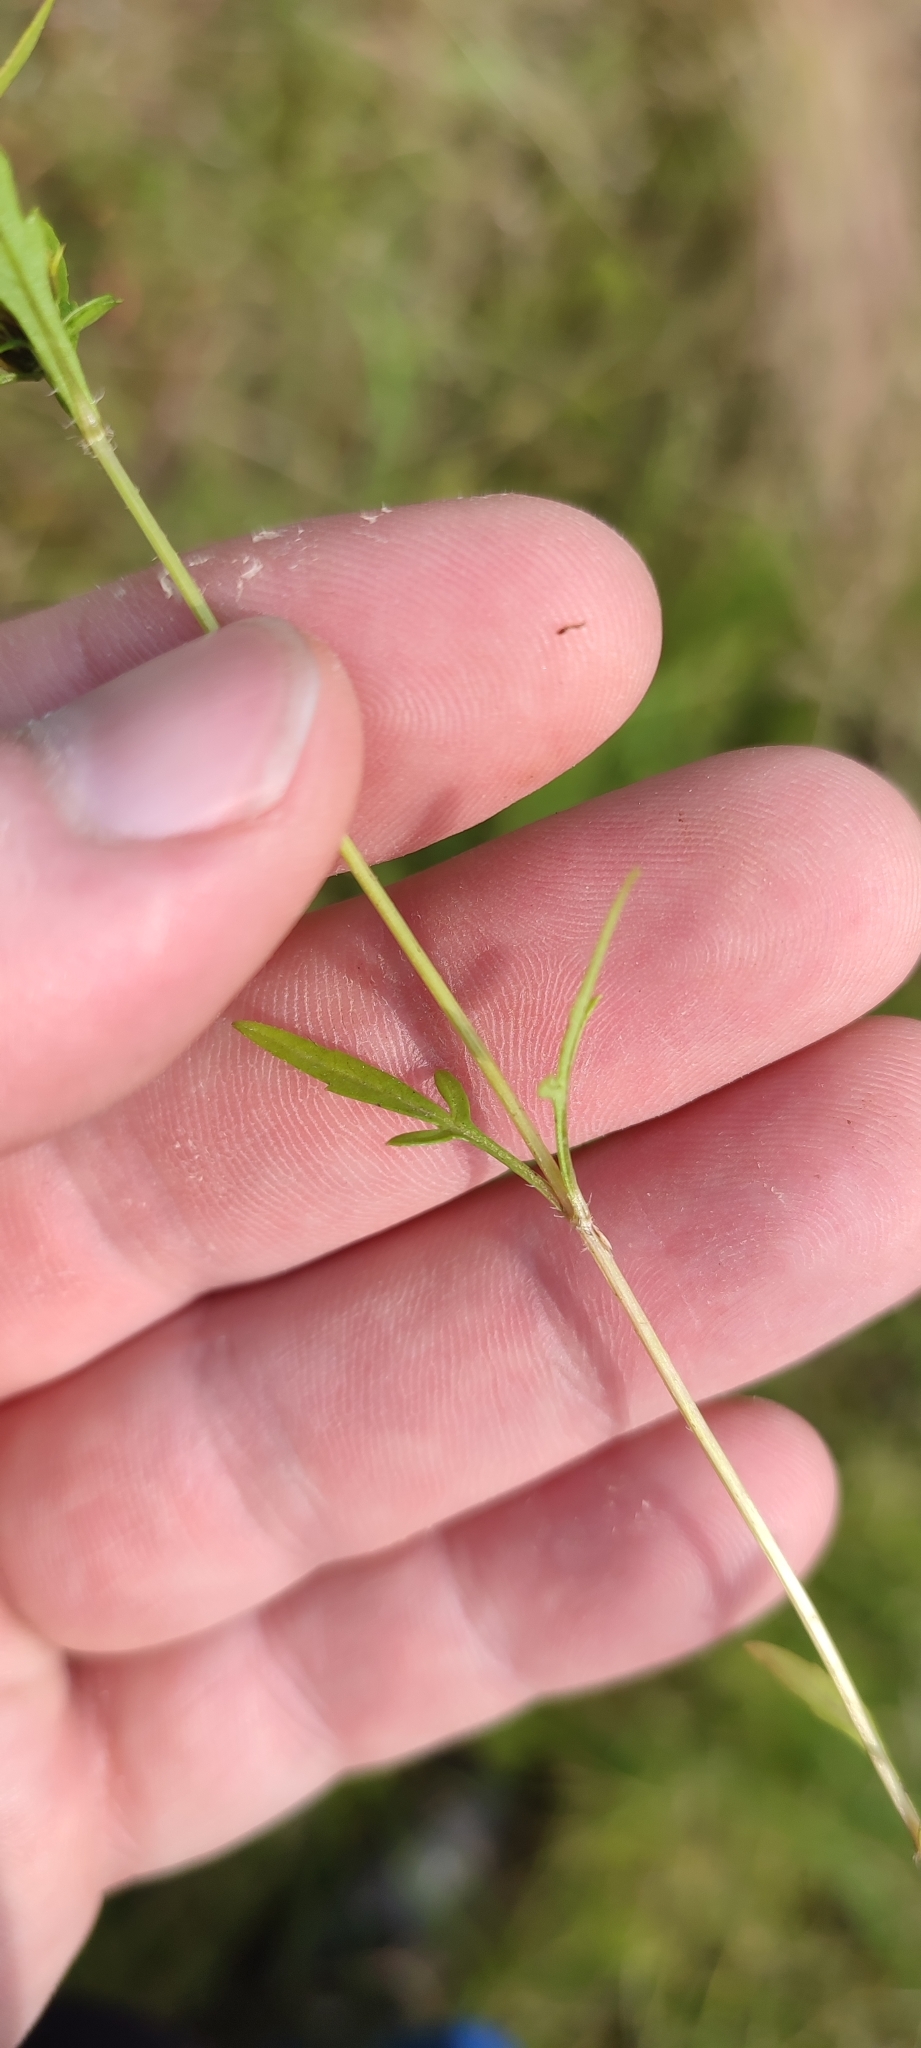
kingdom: Plantae
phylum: Tracheophyta
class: Magnoliopsida
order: Asterales
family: Asteraceae
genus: Bidens
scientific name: Bidens radiata
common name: Radiating bur-marigold
